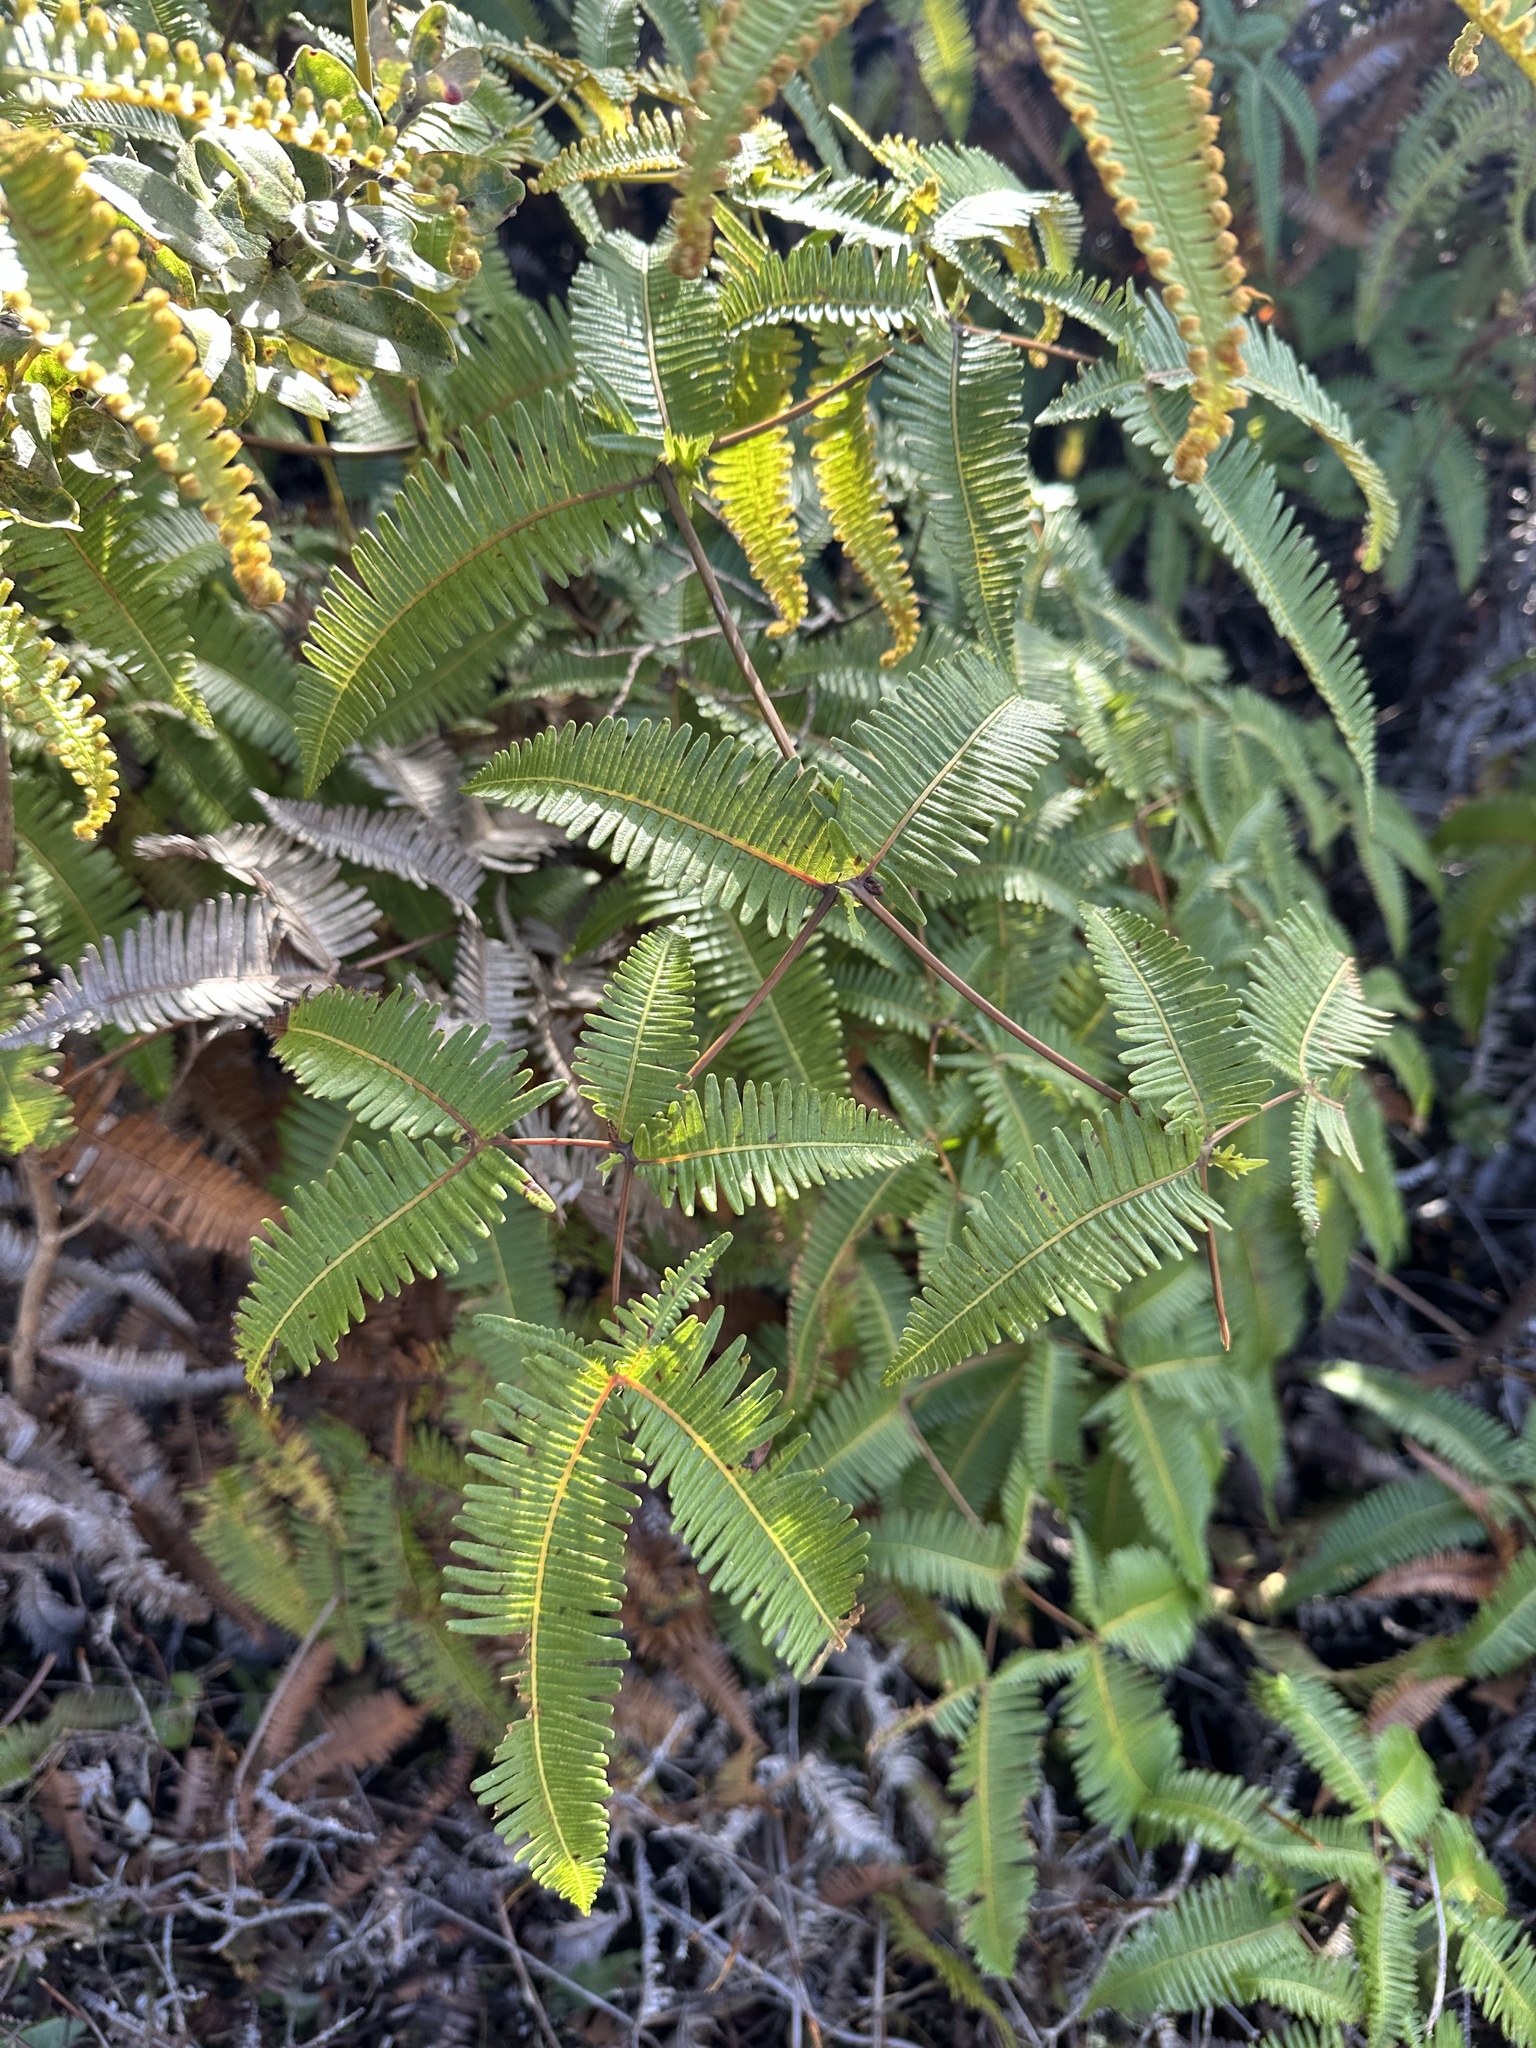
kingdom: Plantae
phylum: Tracheophyta
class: Polypodiopsida
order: Gleicheniales
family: Gleicheniaceae
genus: Dicranopteris
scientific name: Dicranopteris linearis
